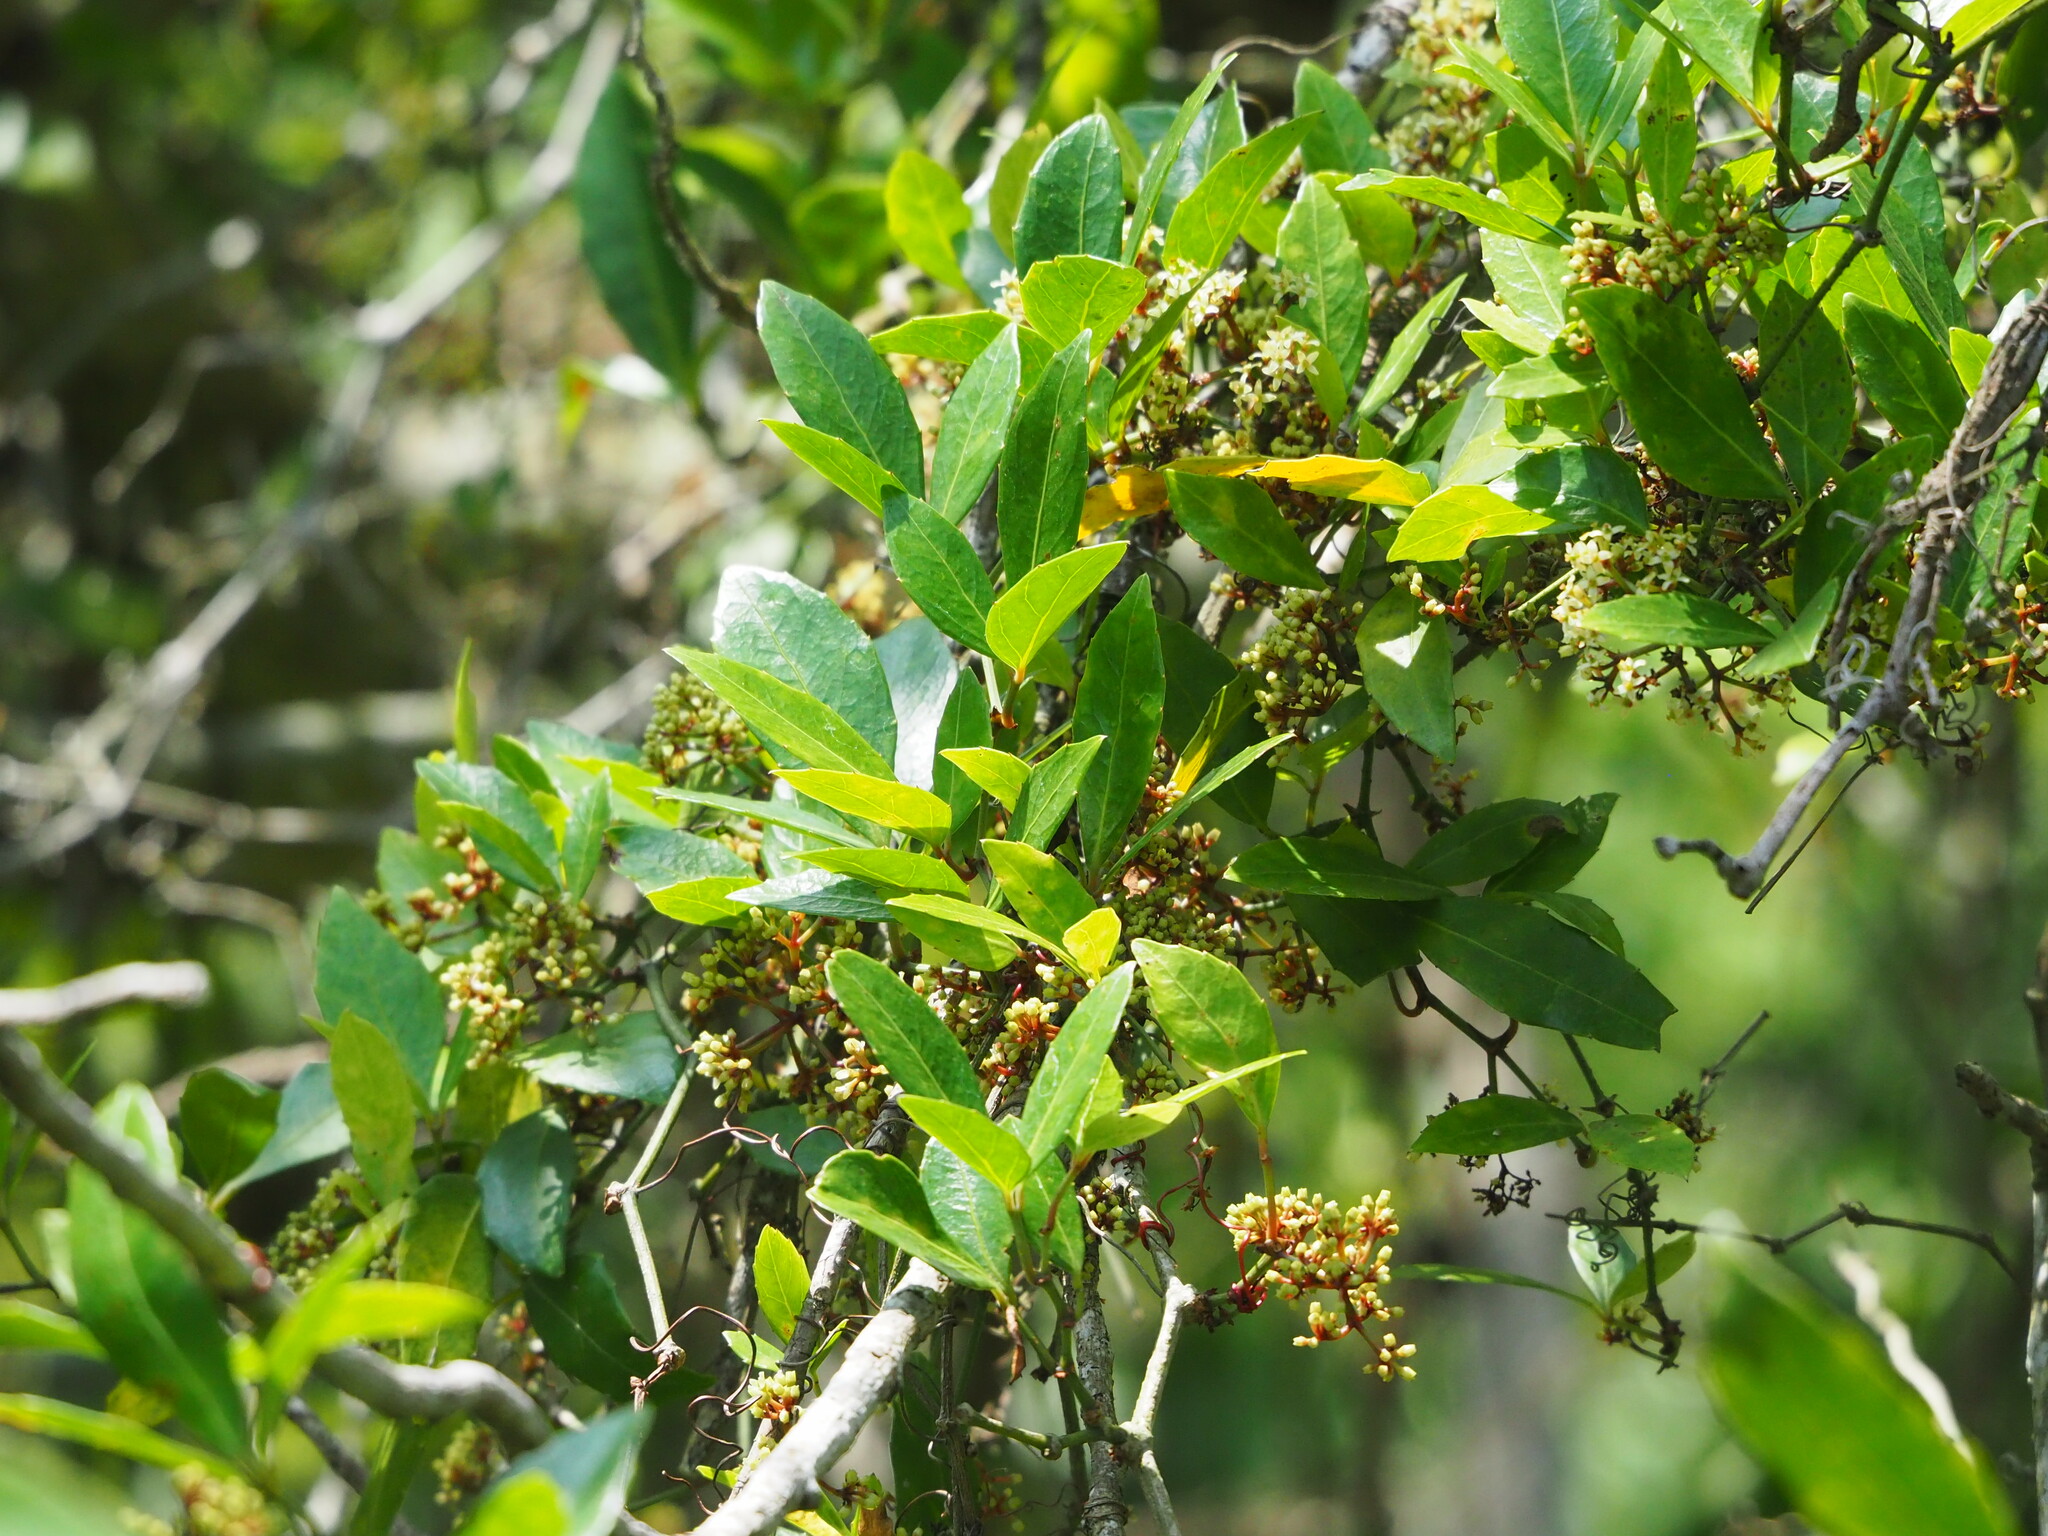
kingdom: Plantae
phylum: Tracheophyta
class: Magnoliopsida
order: Vitales
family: Vitaceae
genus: Tetrastigma
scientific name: Tetrastigma formosanum
